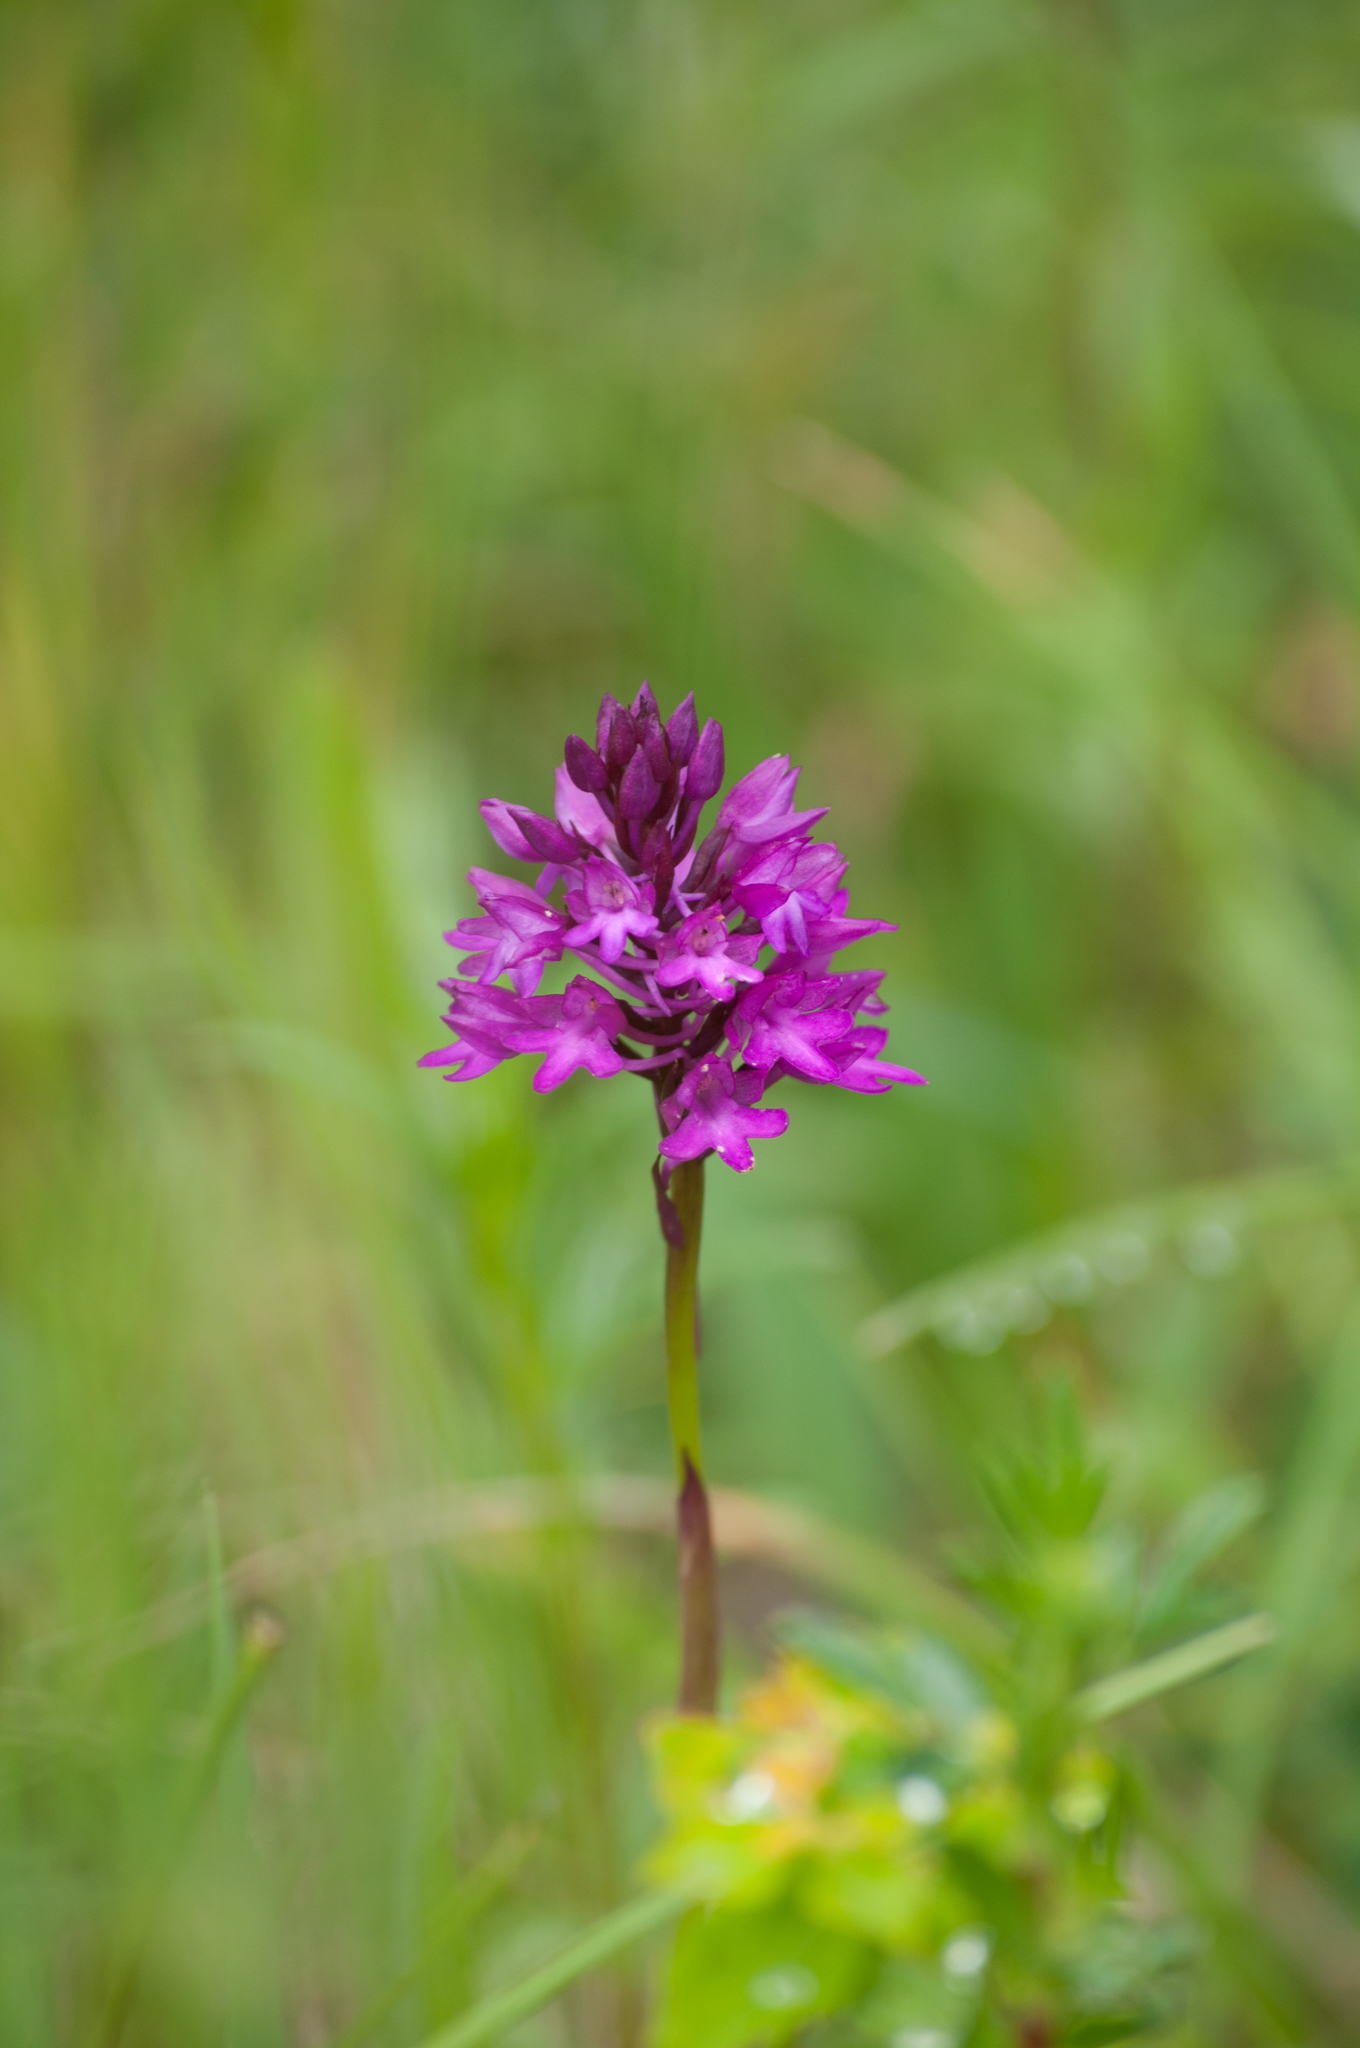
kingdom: Plantae
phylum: Tracheophyta
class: Liliopsida
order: Asparagales
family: Orchidaceae
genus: Anacamptis
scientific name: Anacamptis pyramidalis
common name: Pyramidal orchid
